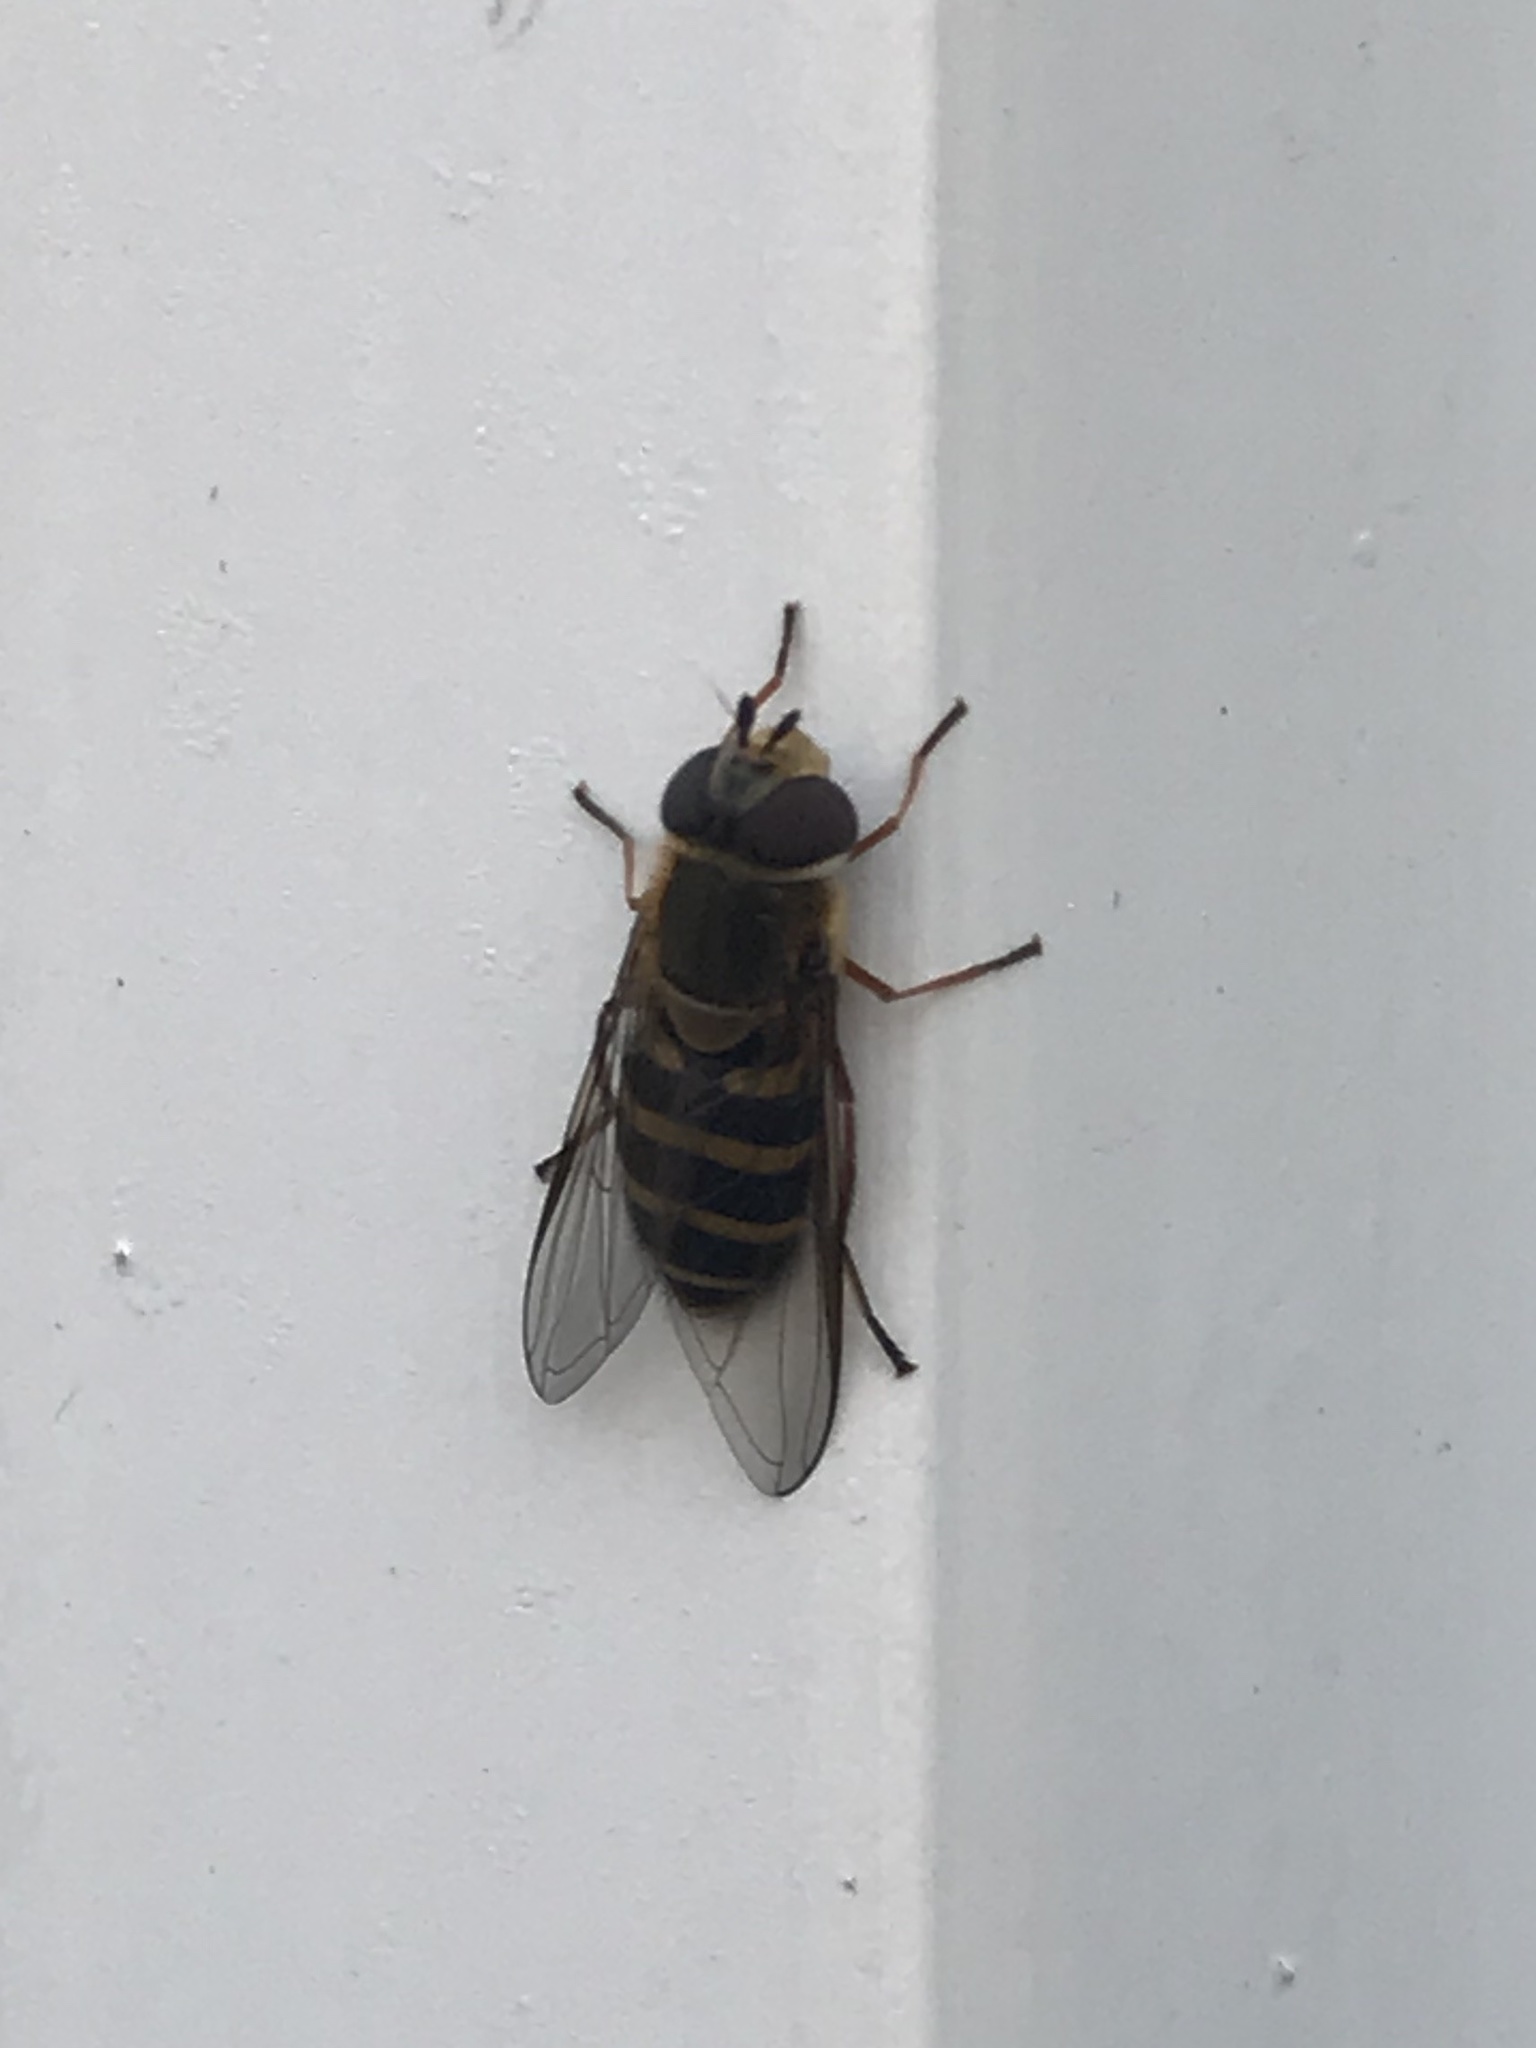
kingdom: Animalia
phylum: Arthropoda
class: Insecta
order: Diptera
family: Syrphidae
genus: Syrphus
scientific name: Syrphus
